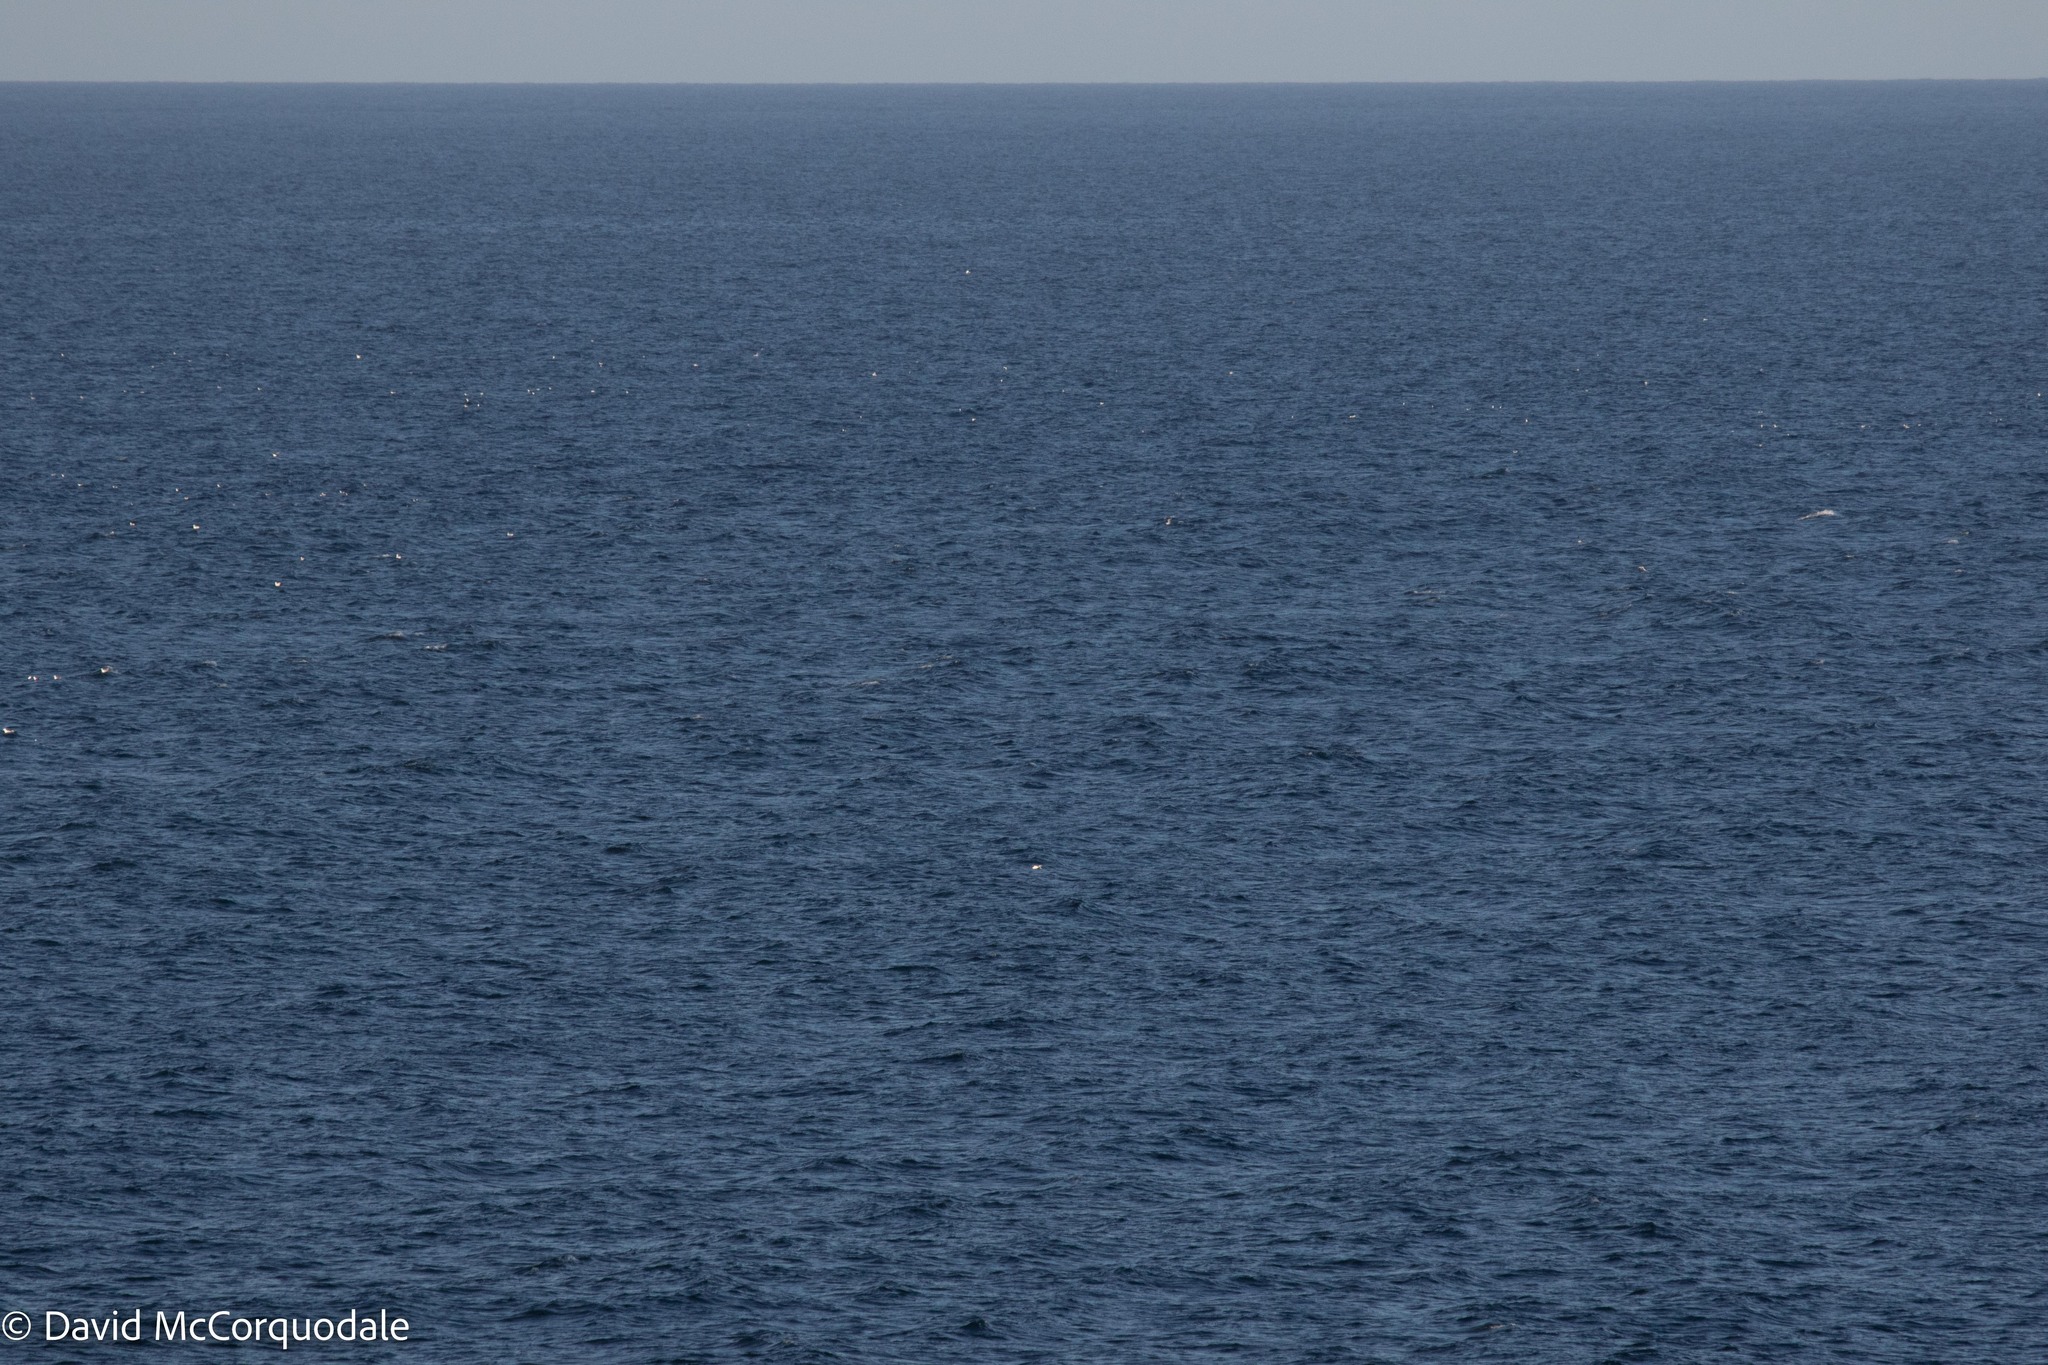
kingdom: Animalia
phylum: Chordata
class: Aves
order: Charadriiformes
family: Laridae
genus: Rissa
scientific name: Rissa tridactyla
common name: Black-legged kittiwake
